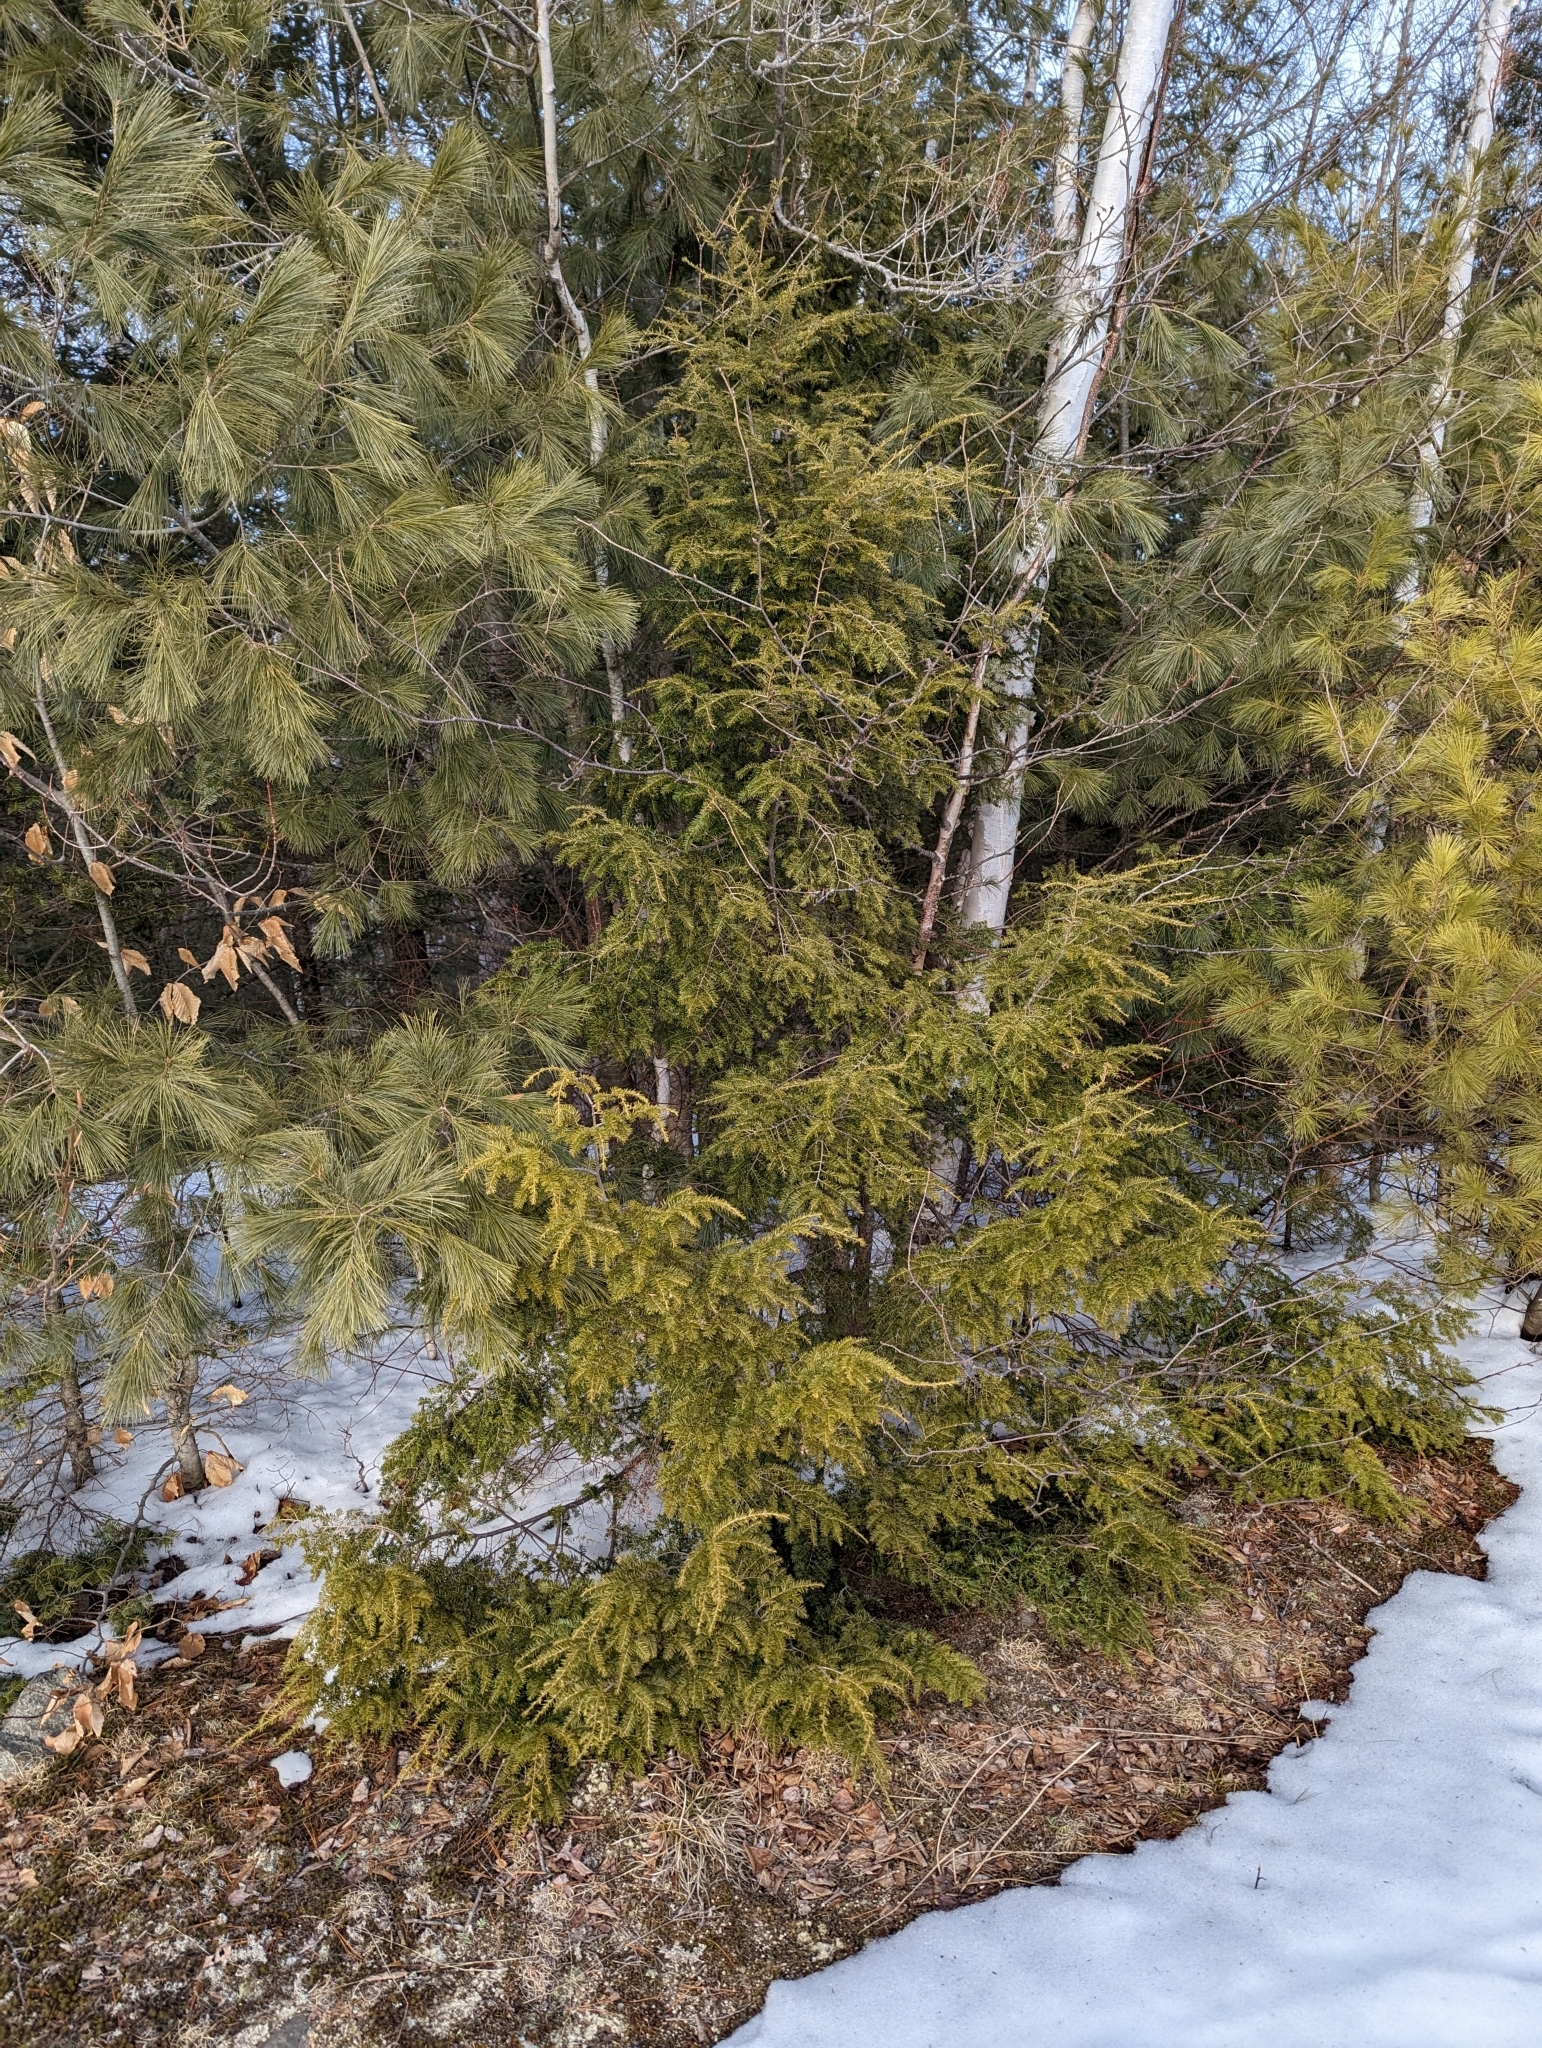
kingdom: Plantae
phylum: Tracheophyta
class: Pinopsida
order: Pinales
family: Pinaceae
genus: Tsuga
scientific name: Tsuga canadensis
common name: Eastern hemlock
